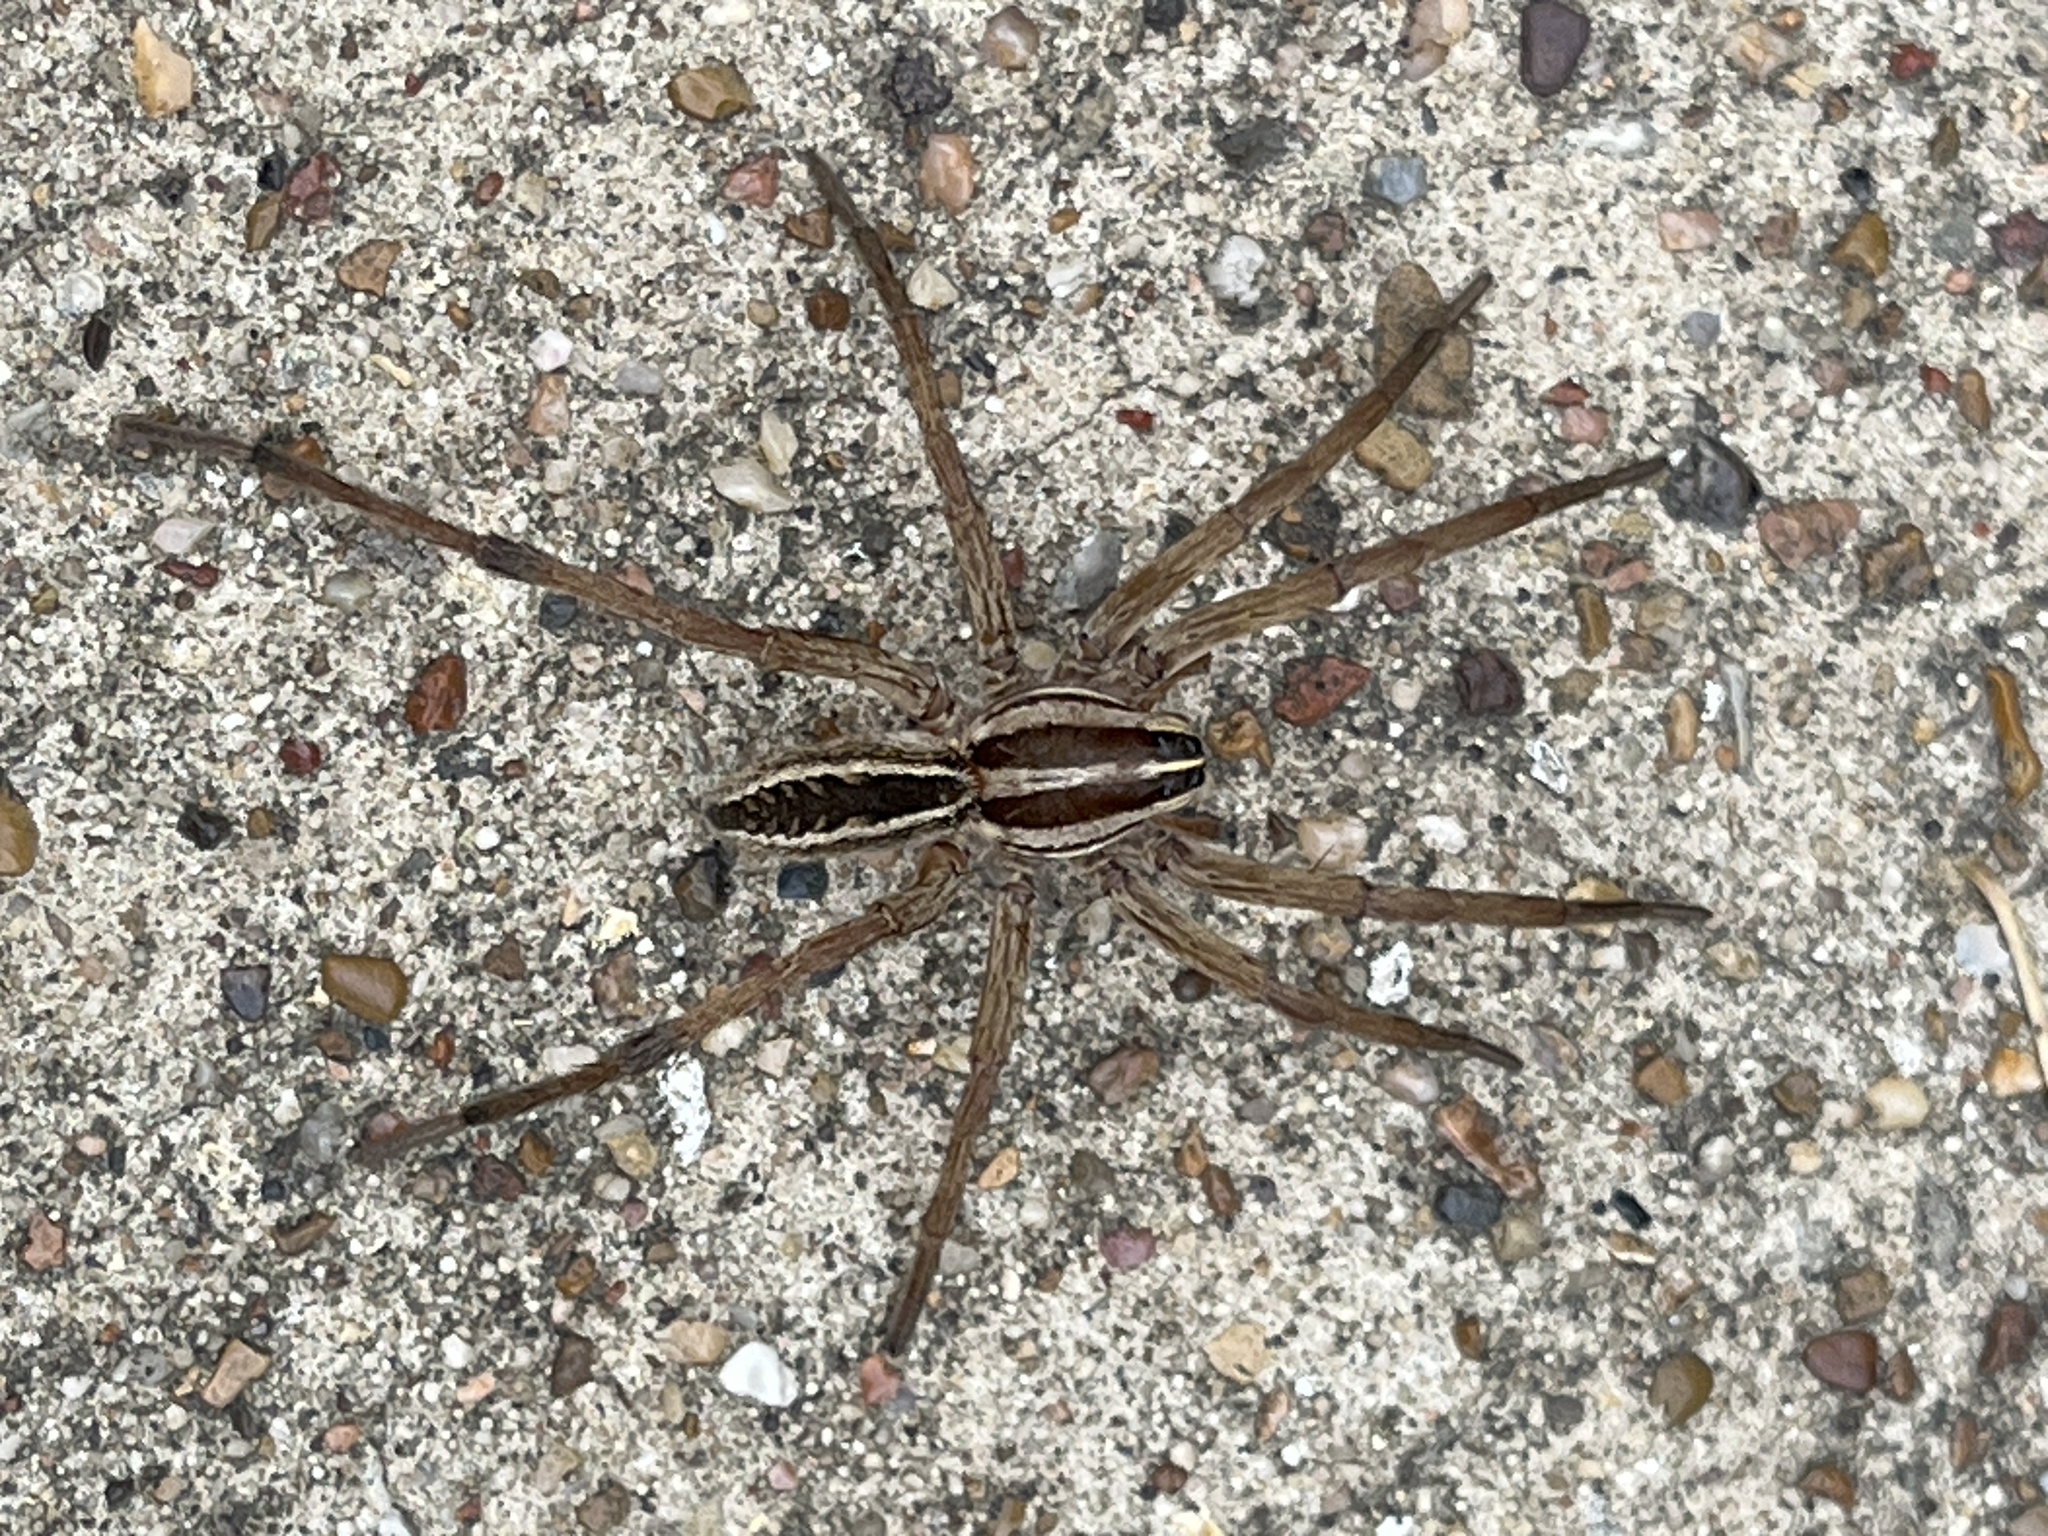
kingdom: Animalia
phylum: Arthropoda
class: Arachnida
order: Araneae
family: Lycosidae
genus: Rabidosa
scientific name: Rabidosa rabida
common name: Rabid wolf spider
